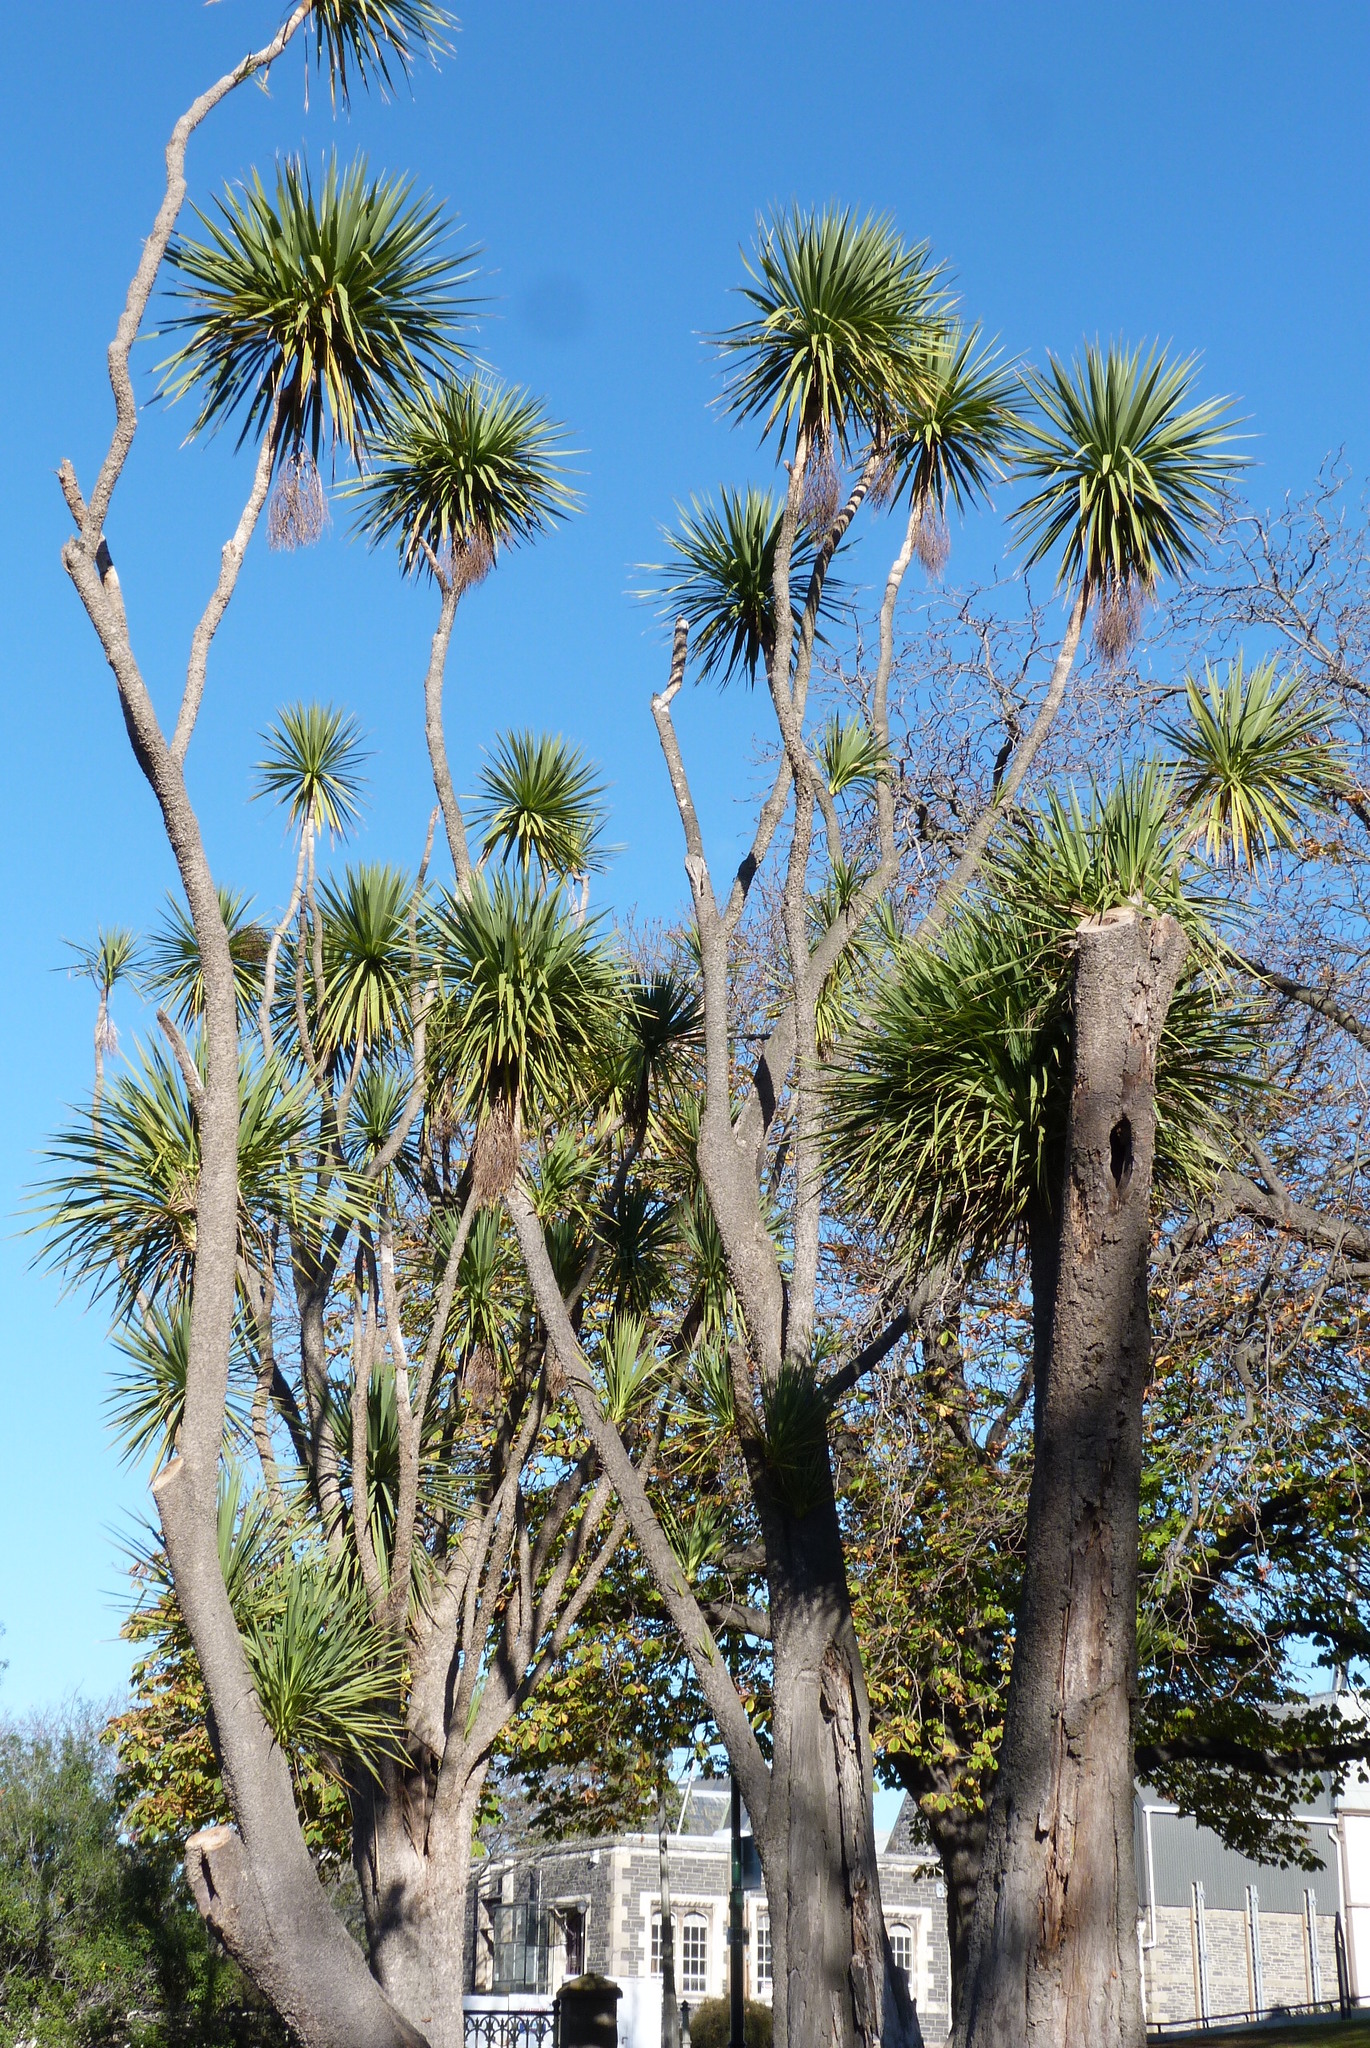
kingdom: Plantae
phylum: Tracheophyta
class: Liliopsida
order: Asparagales
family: Asparagaceae
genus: Cordyline
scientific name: Cordyline australis
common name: Cabbage-palm
